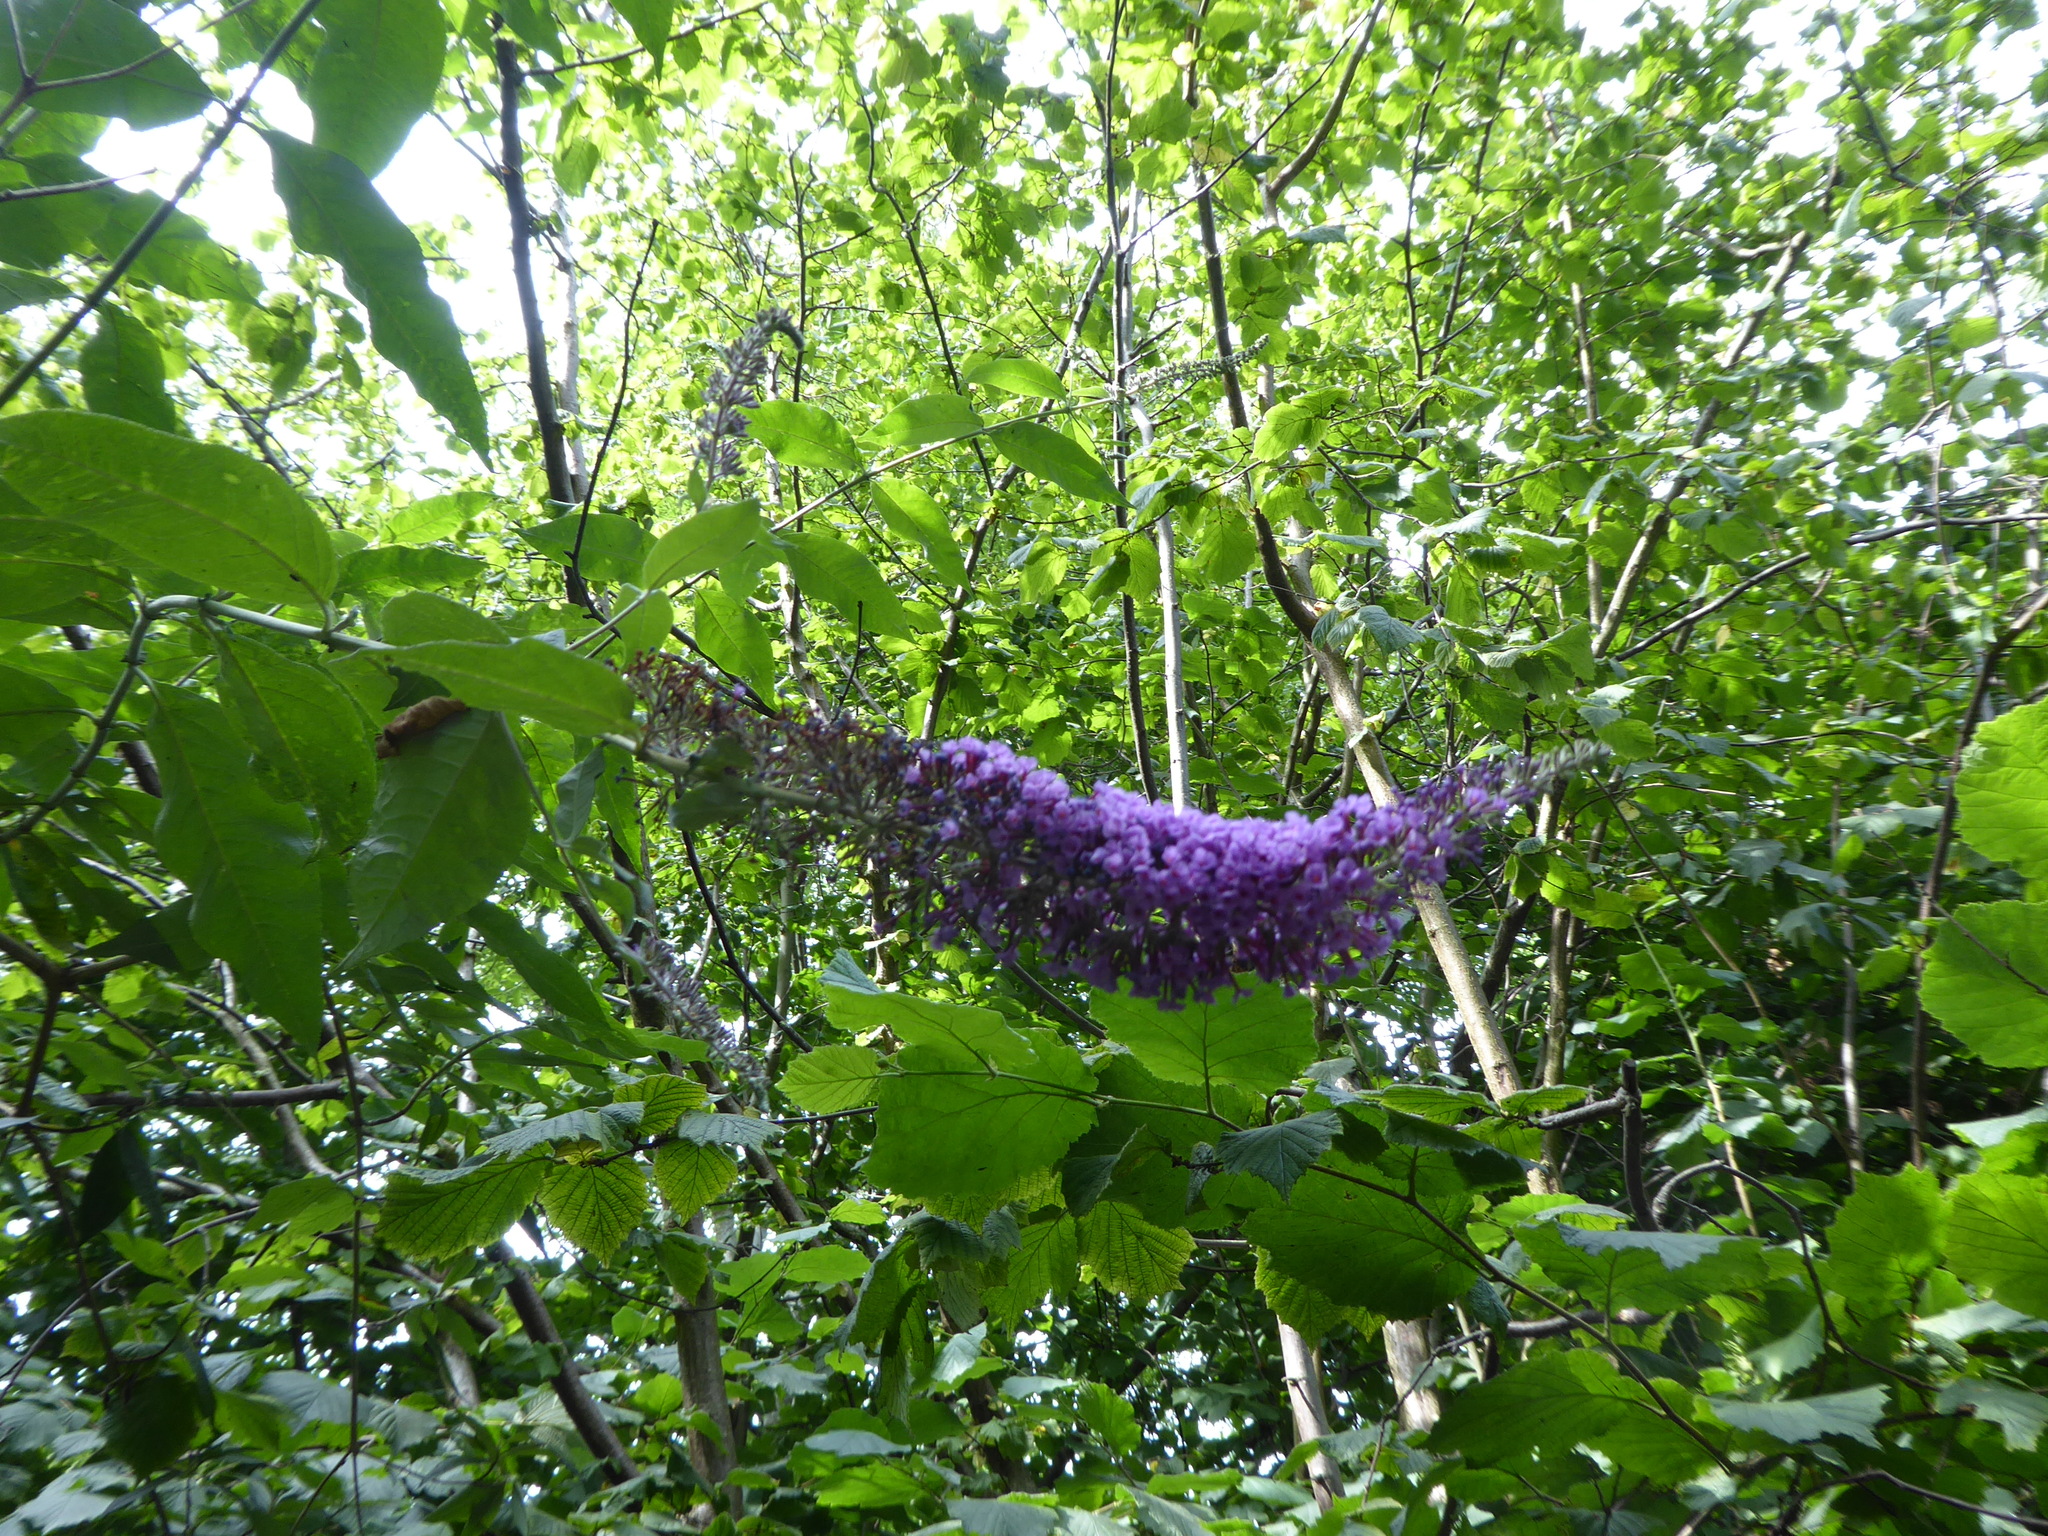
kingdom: Plantae
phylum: Tracheophyta
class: Magnoliopsida
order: Lamiales
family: Scrophulariaceae
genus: Buddleja
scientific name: Buddleja davidii
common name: Butterfly-bush
